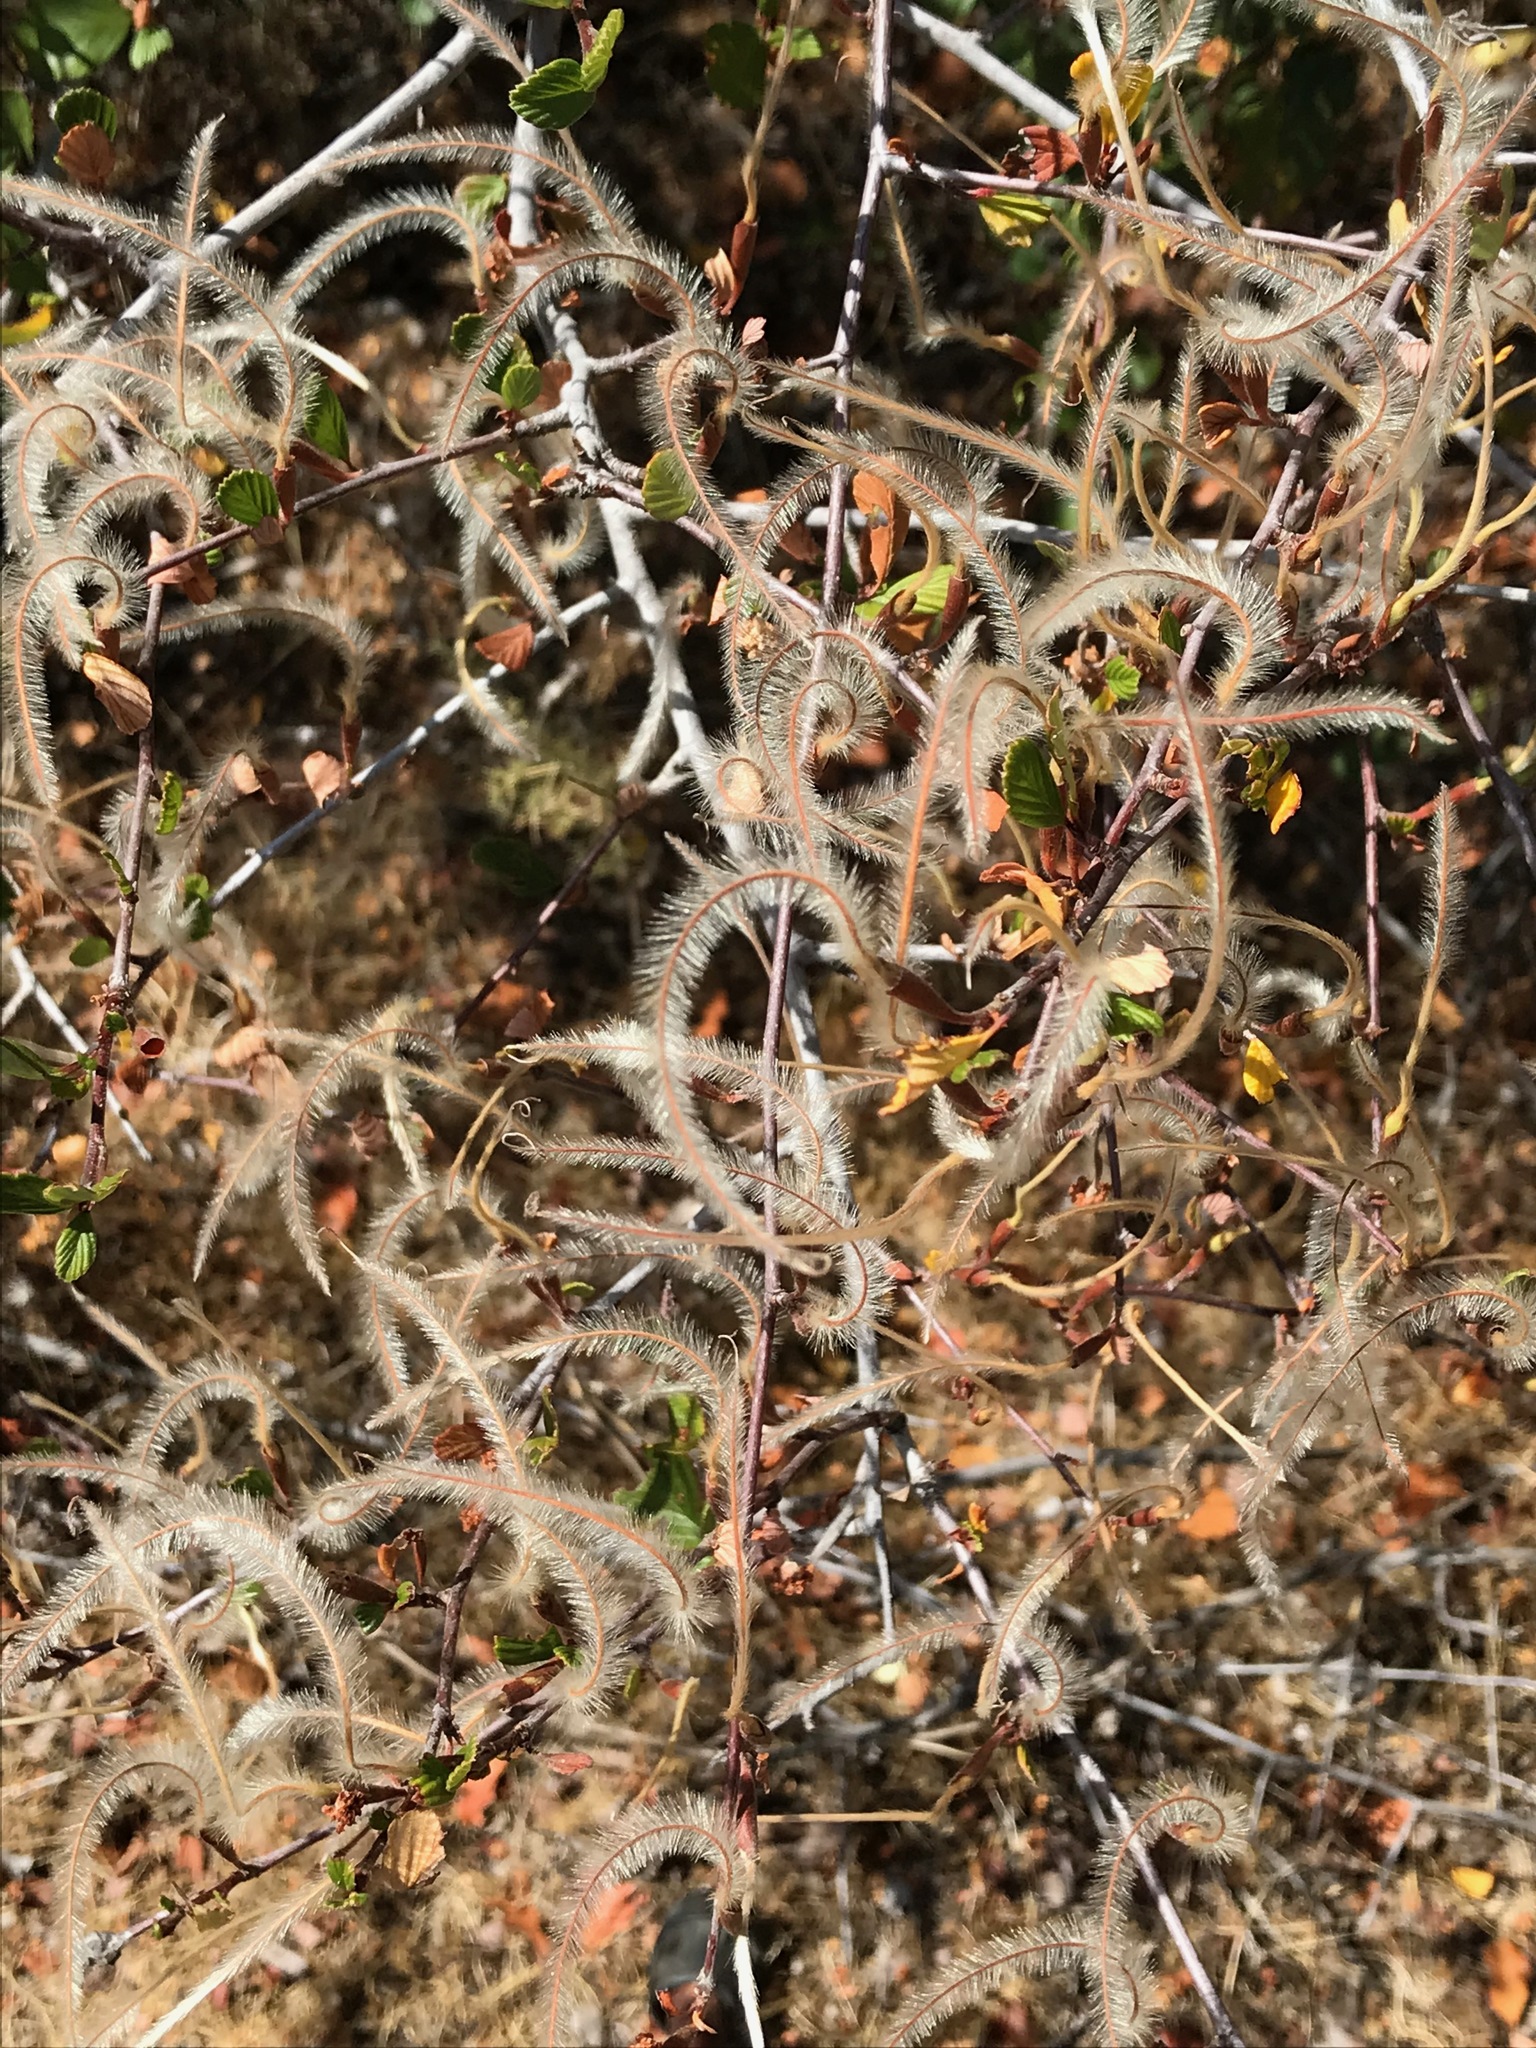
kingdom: Plantae
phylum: Tracheophyta
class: Magnoliopsida
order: Rosales
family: Rosaceae
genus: Cercocarpus
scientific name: Cercocarpus betuloides
